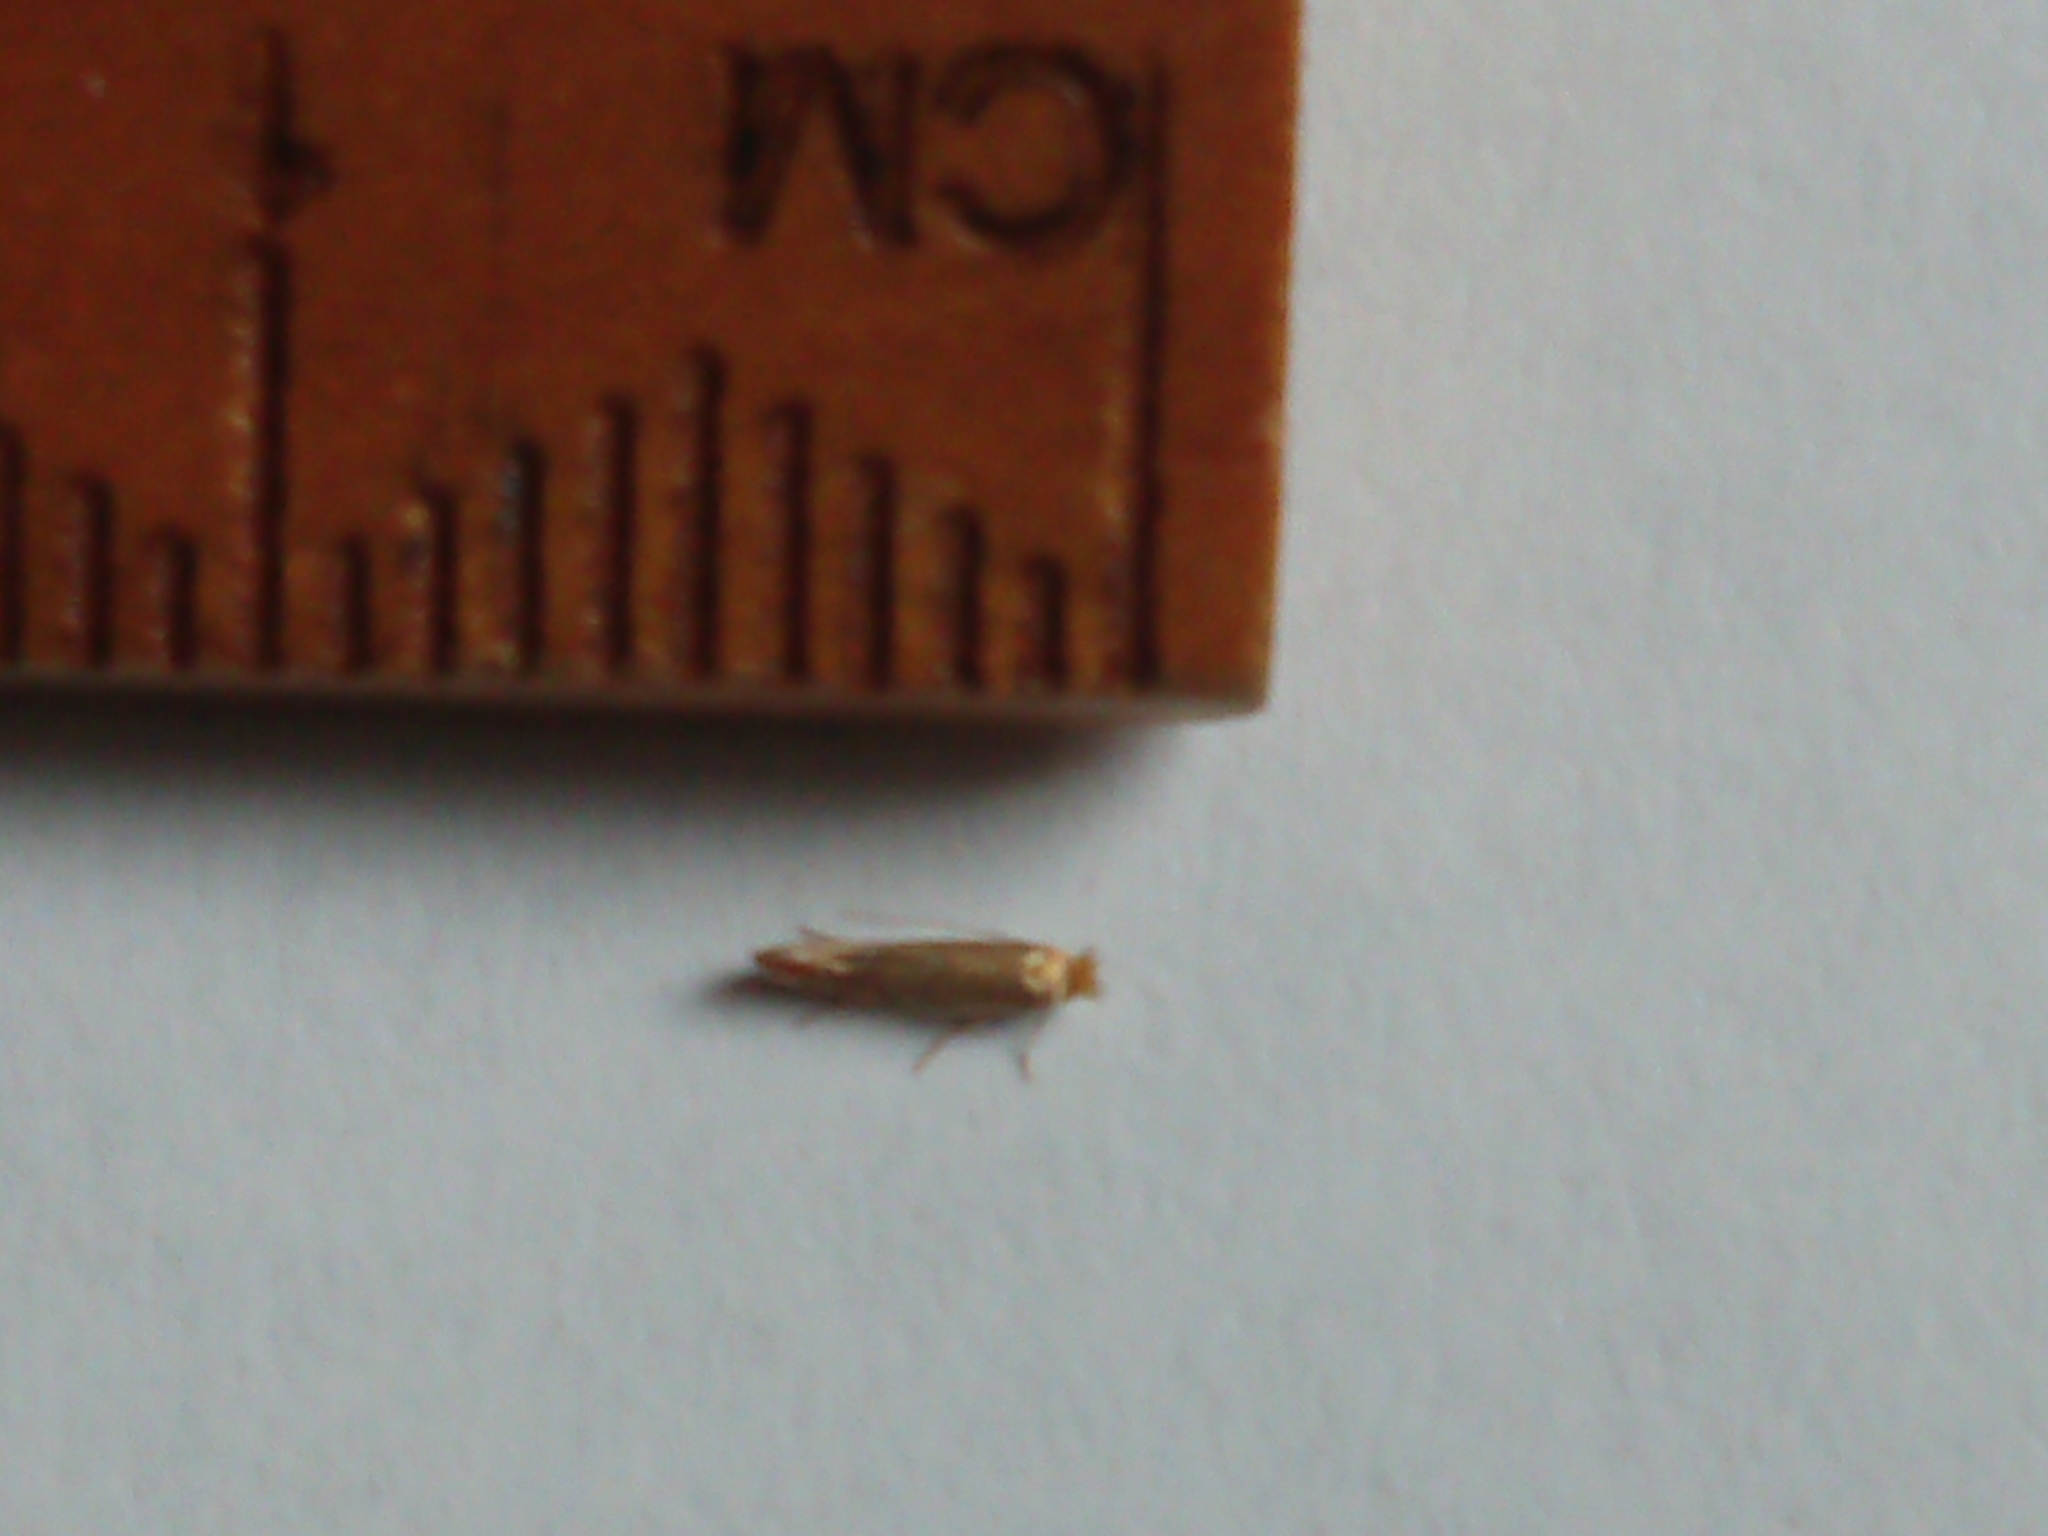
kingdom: Animalia
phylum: Arthropoda
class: Insecta
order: Lepidoptera
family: Gracillariidae
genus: Phyllonorycter
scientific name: Phyllonorycter messaniella
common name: Garden midget
